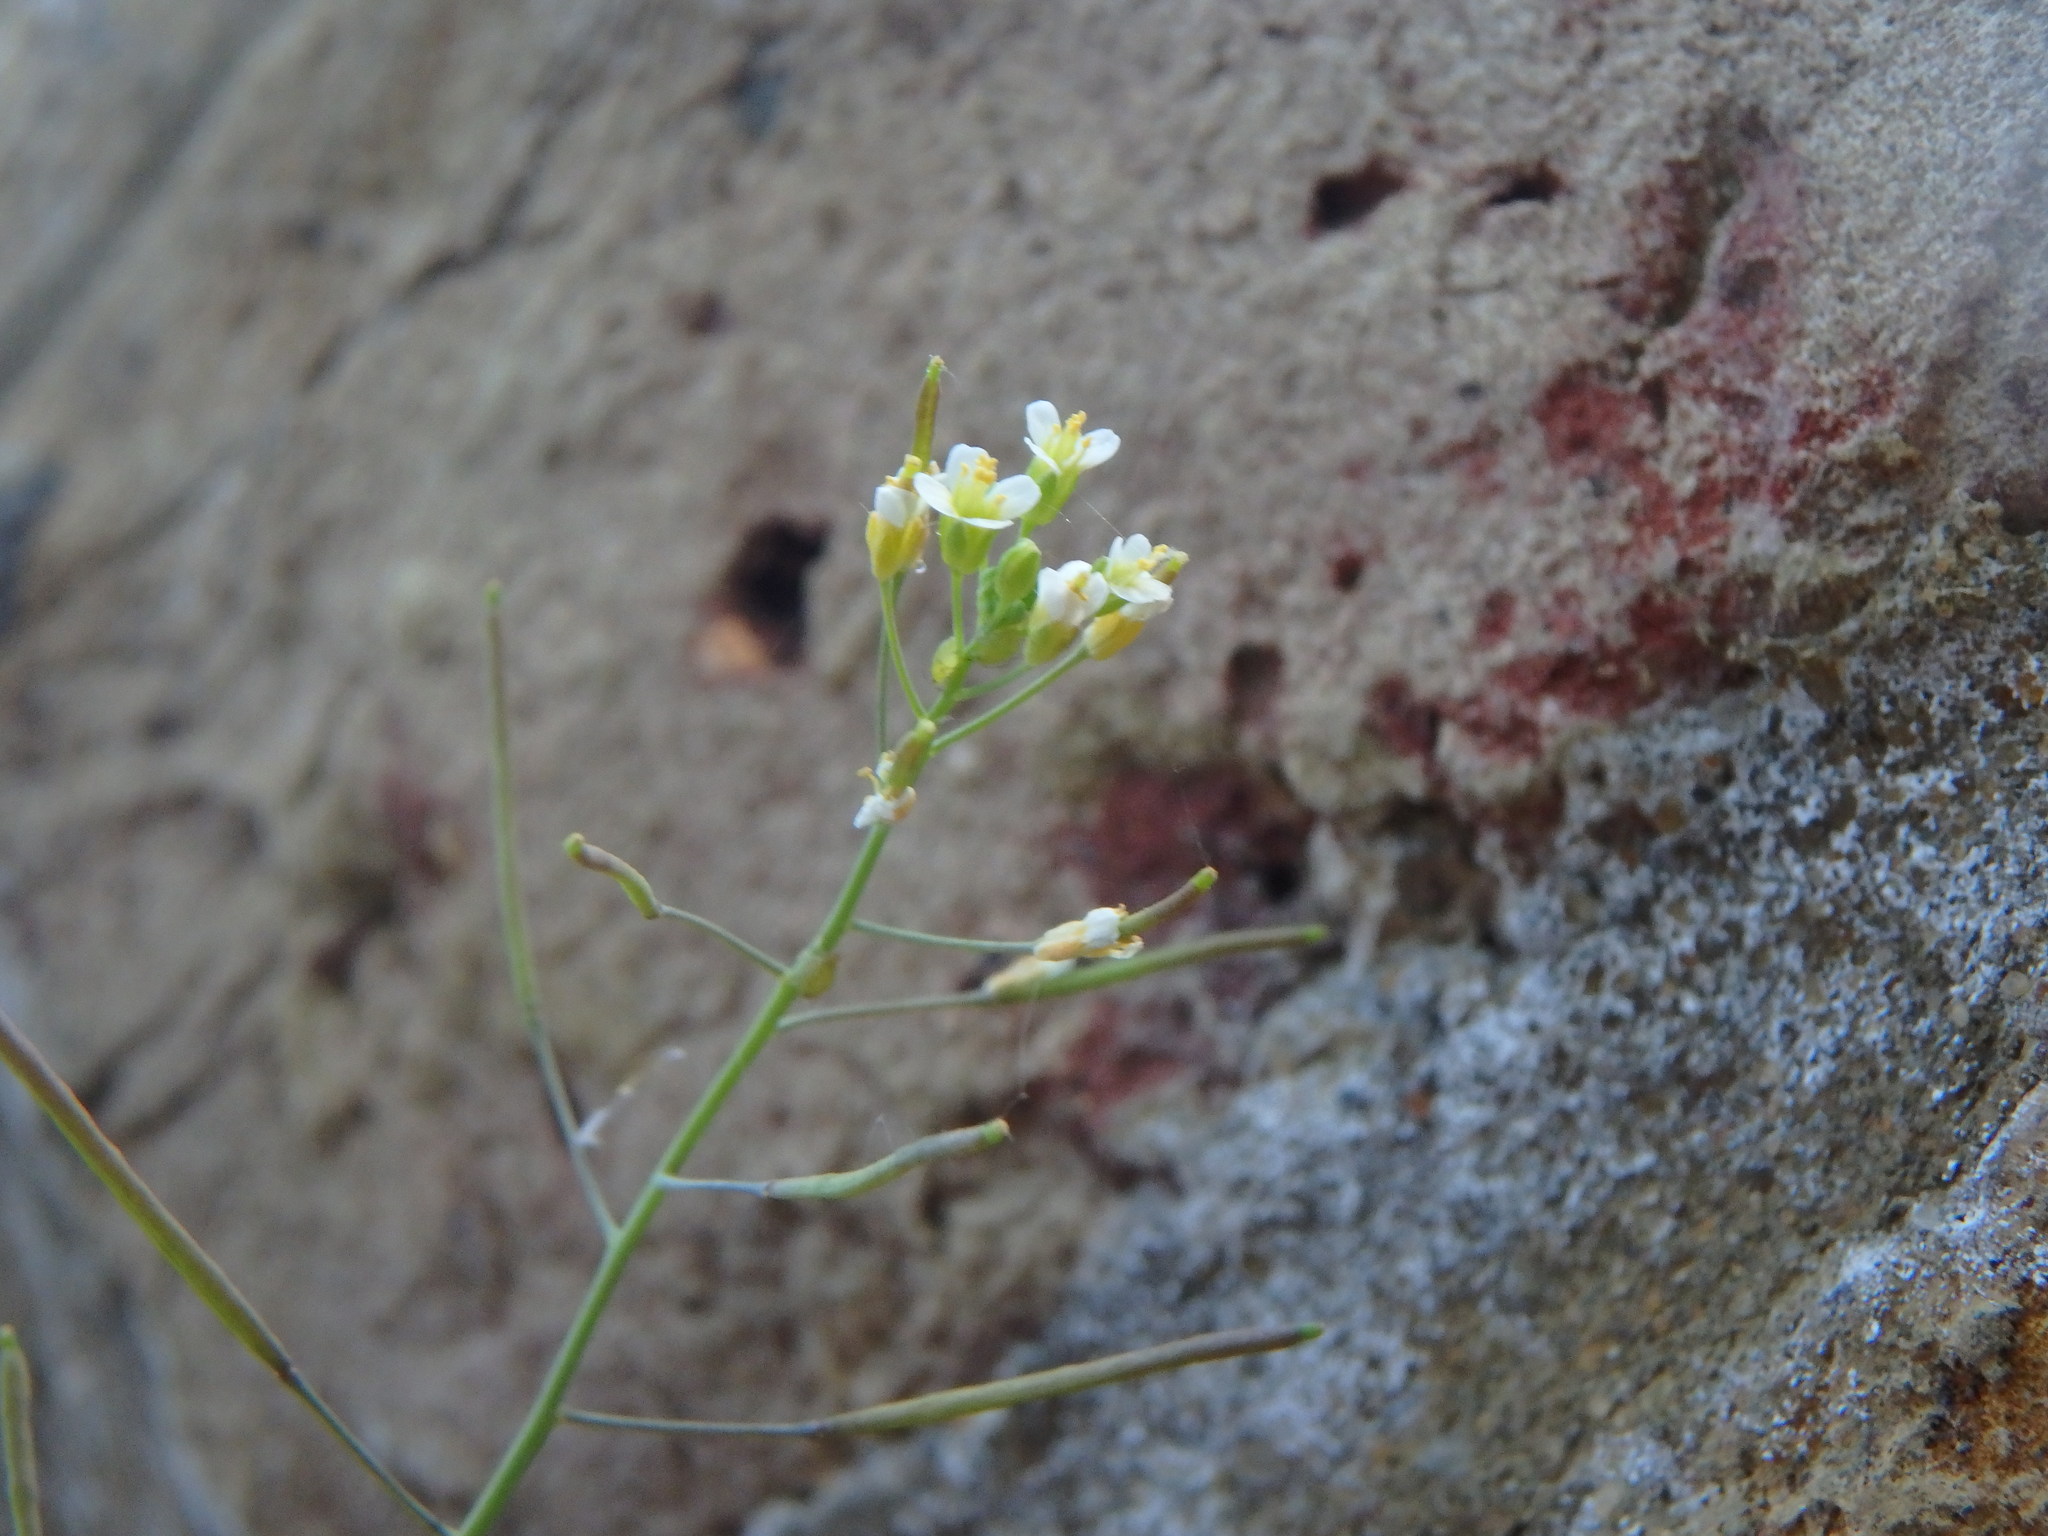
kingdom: Plantae
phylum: Tracheophyta
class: Magnoliopsida
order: Brassicales
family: Brassicaceae
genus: Arabidopsis
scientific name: Arabidopsis thaliana
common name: Thale cress
